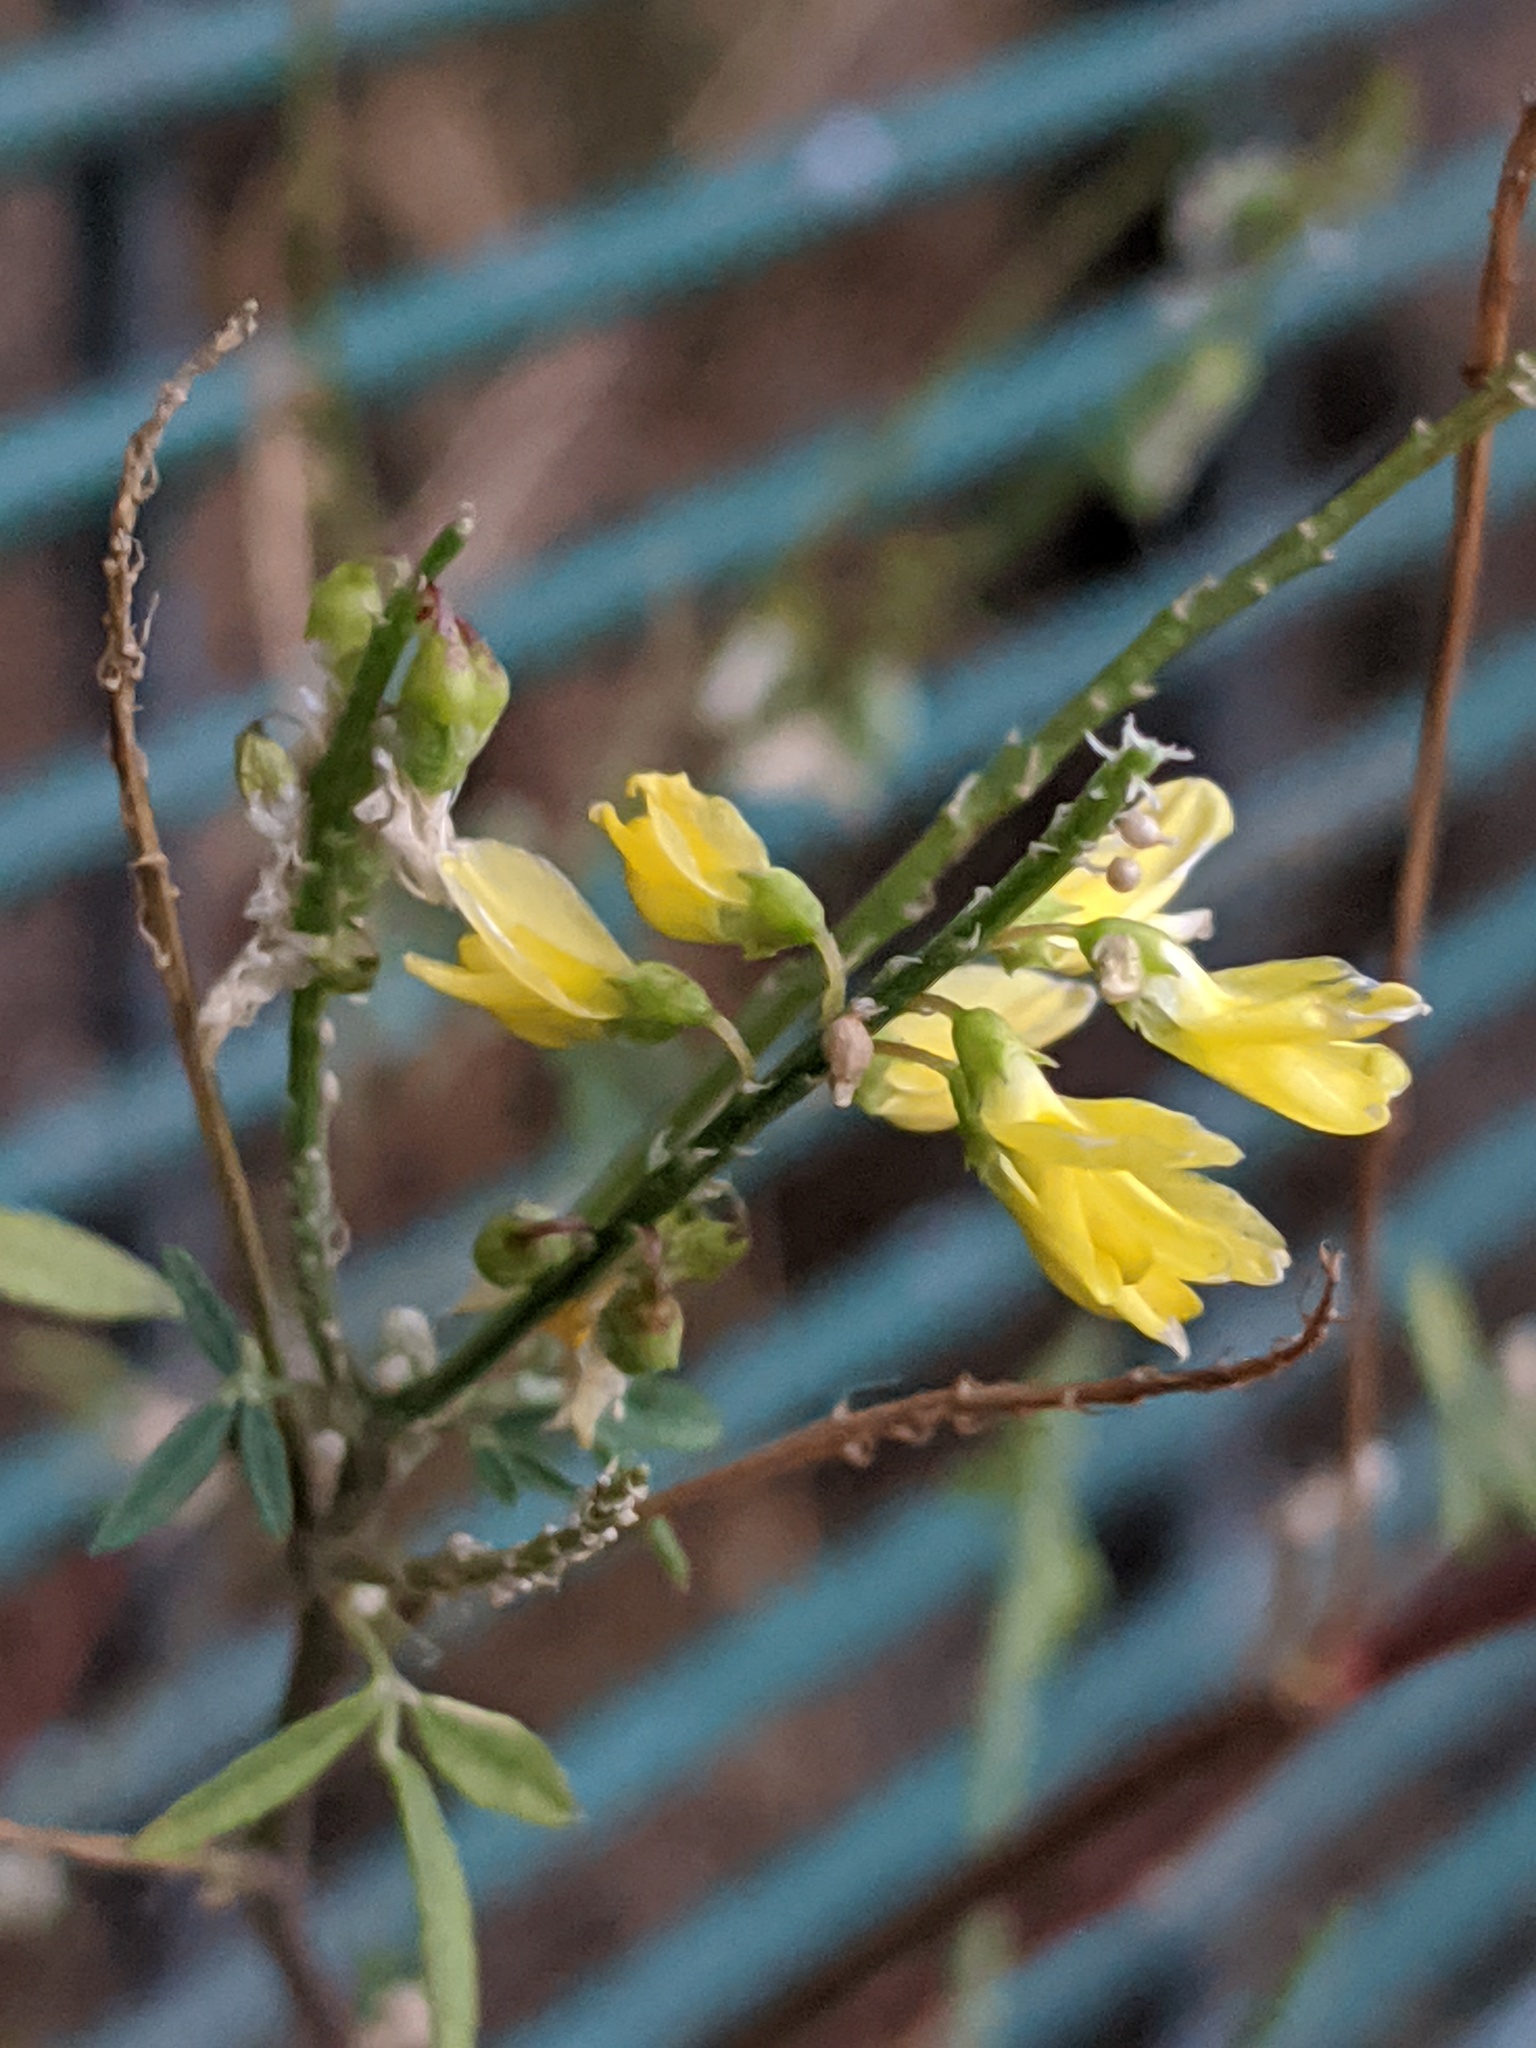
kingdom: Plantae
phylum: Tracheophyta
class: Magnoliopsida
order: Fabales
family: Fabaceae
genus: Melilotus
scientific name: Melilotus officinalis
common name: Sweetclover
